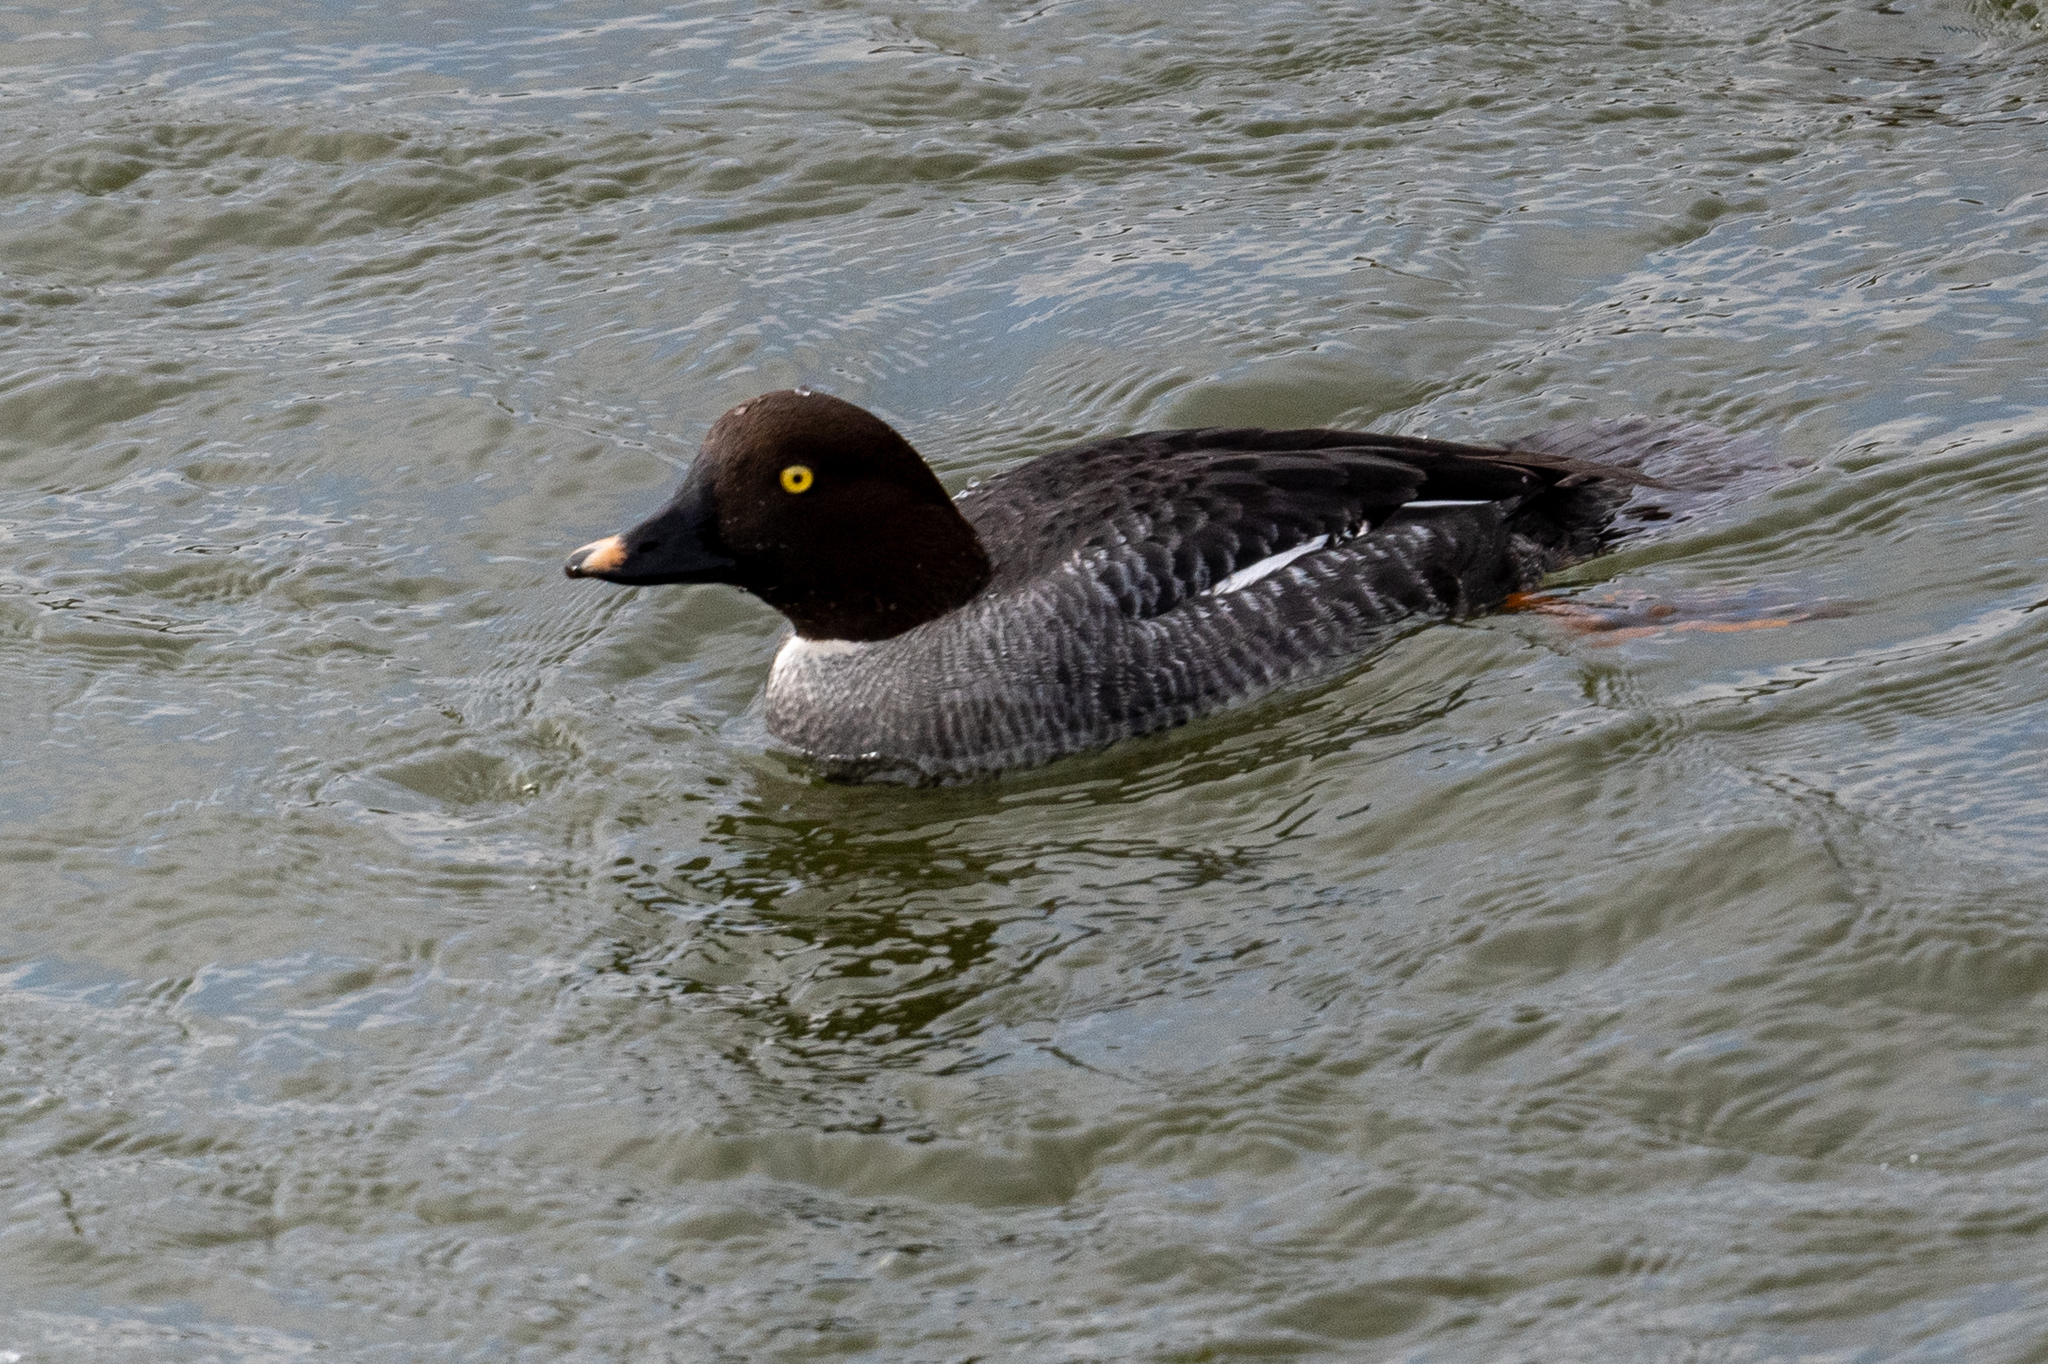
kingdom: Animalia
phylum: Chordata
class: Aves
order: Anseriformes
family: Anatidae
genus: Bucephala
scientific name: Bucephala clangula
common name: Common goldeneye
